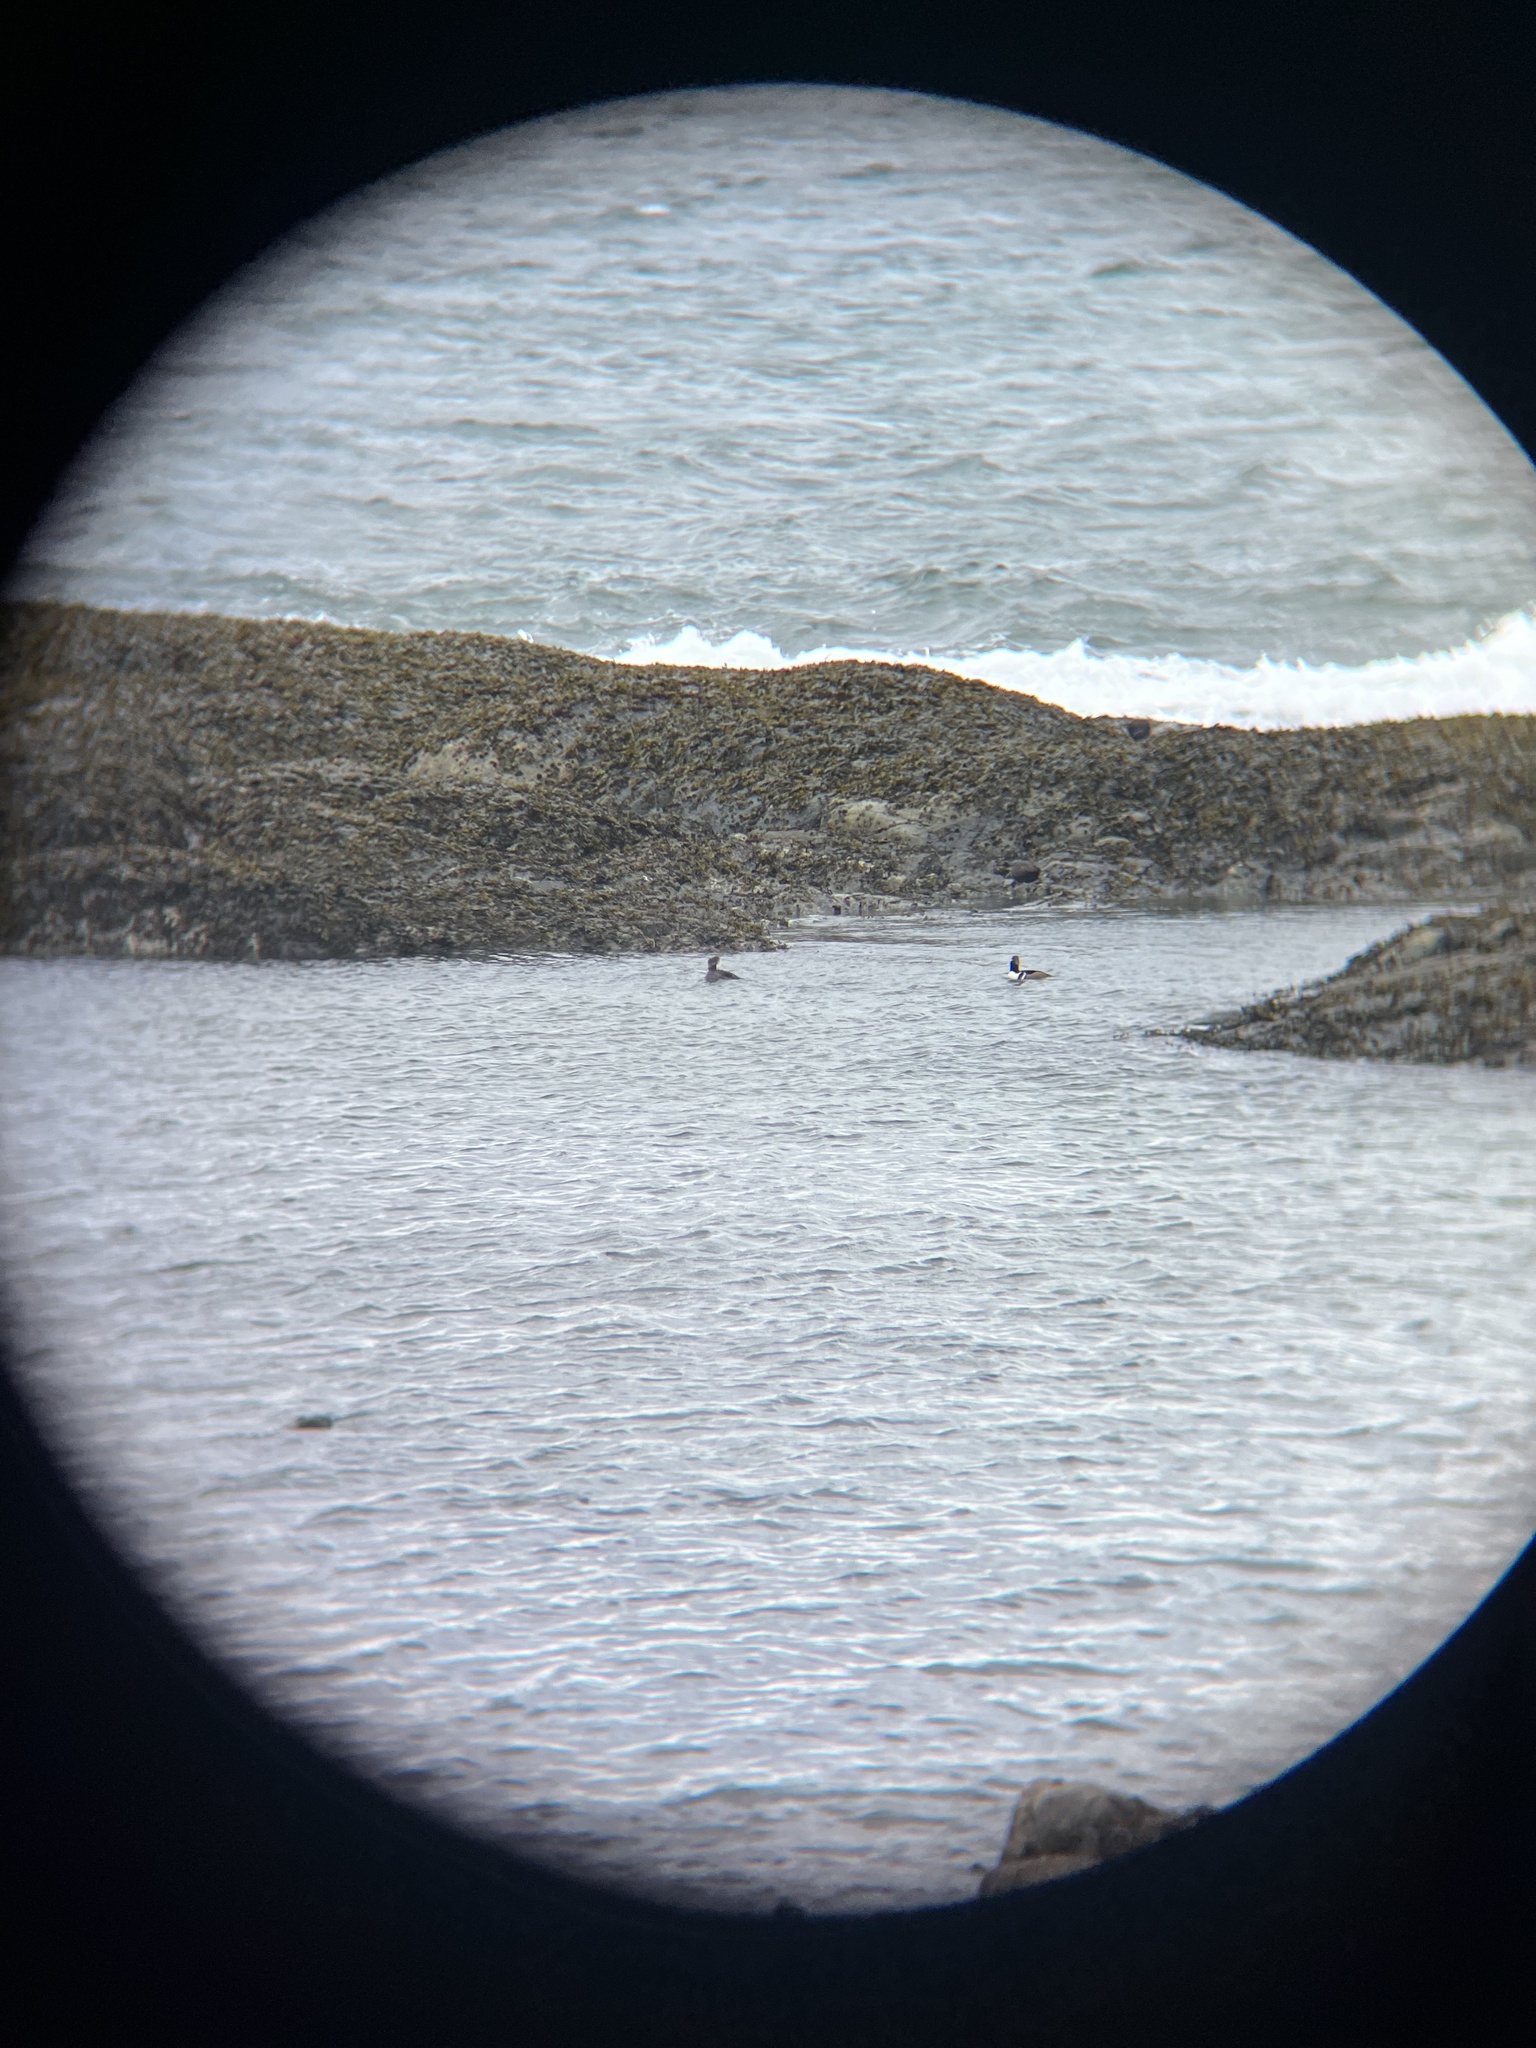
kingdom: Animalia
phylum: Chordata
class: Aves
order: Anseriformes
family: Anatidae
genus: Lophodytes
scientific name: Lophodytes cucullatus
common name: Hooded merganser
